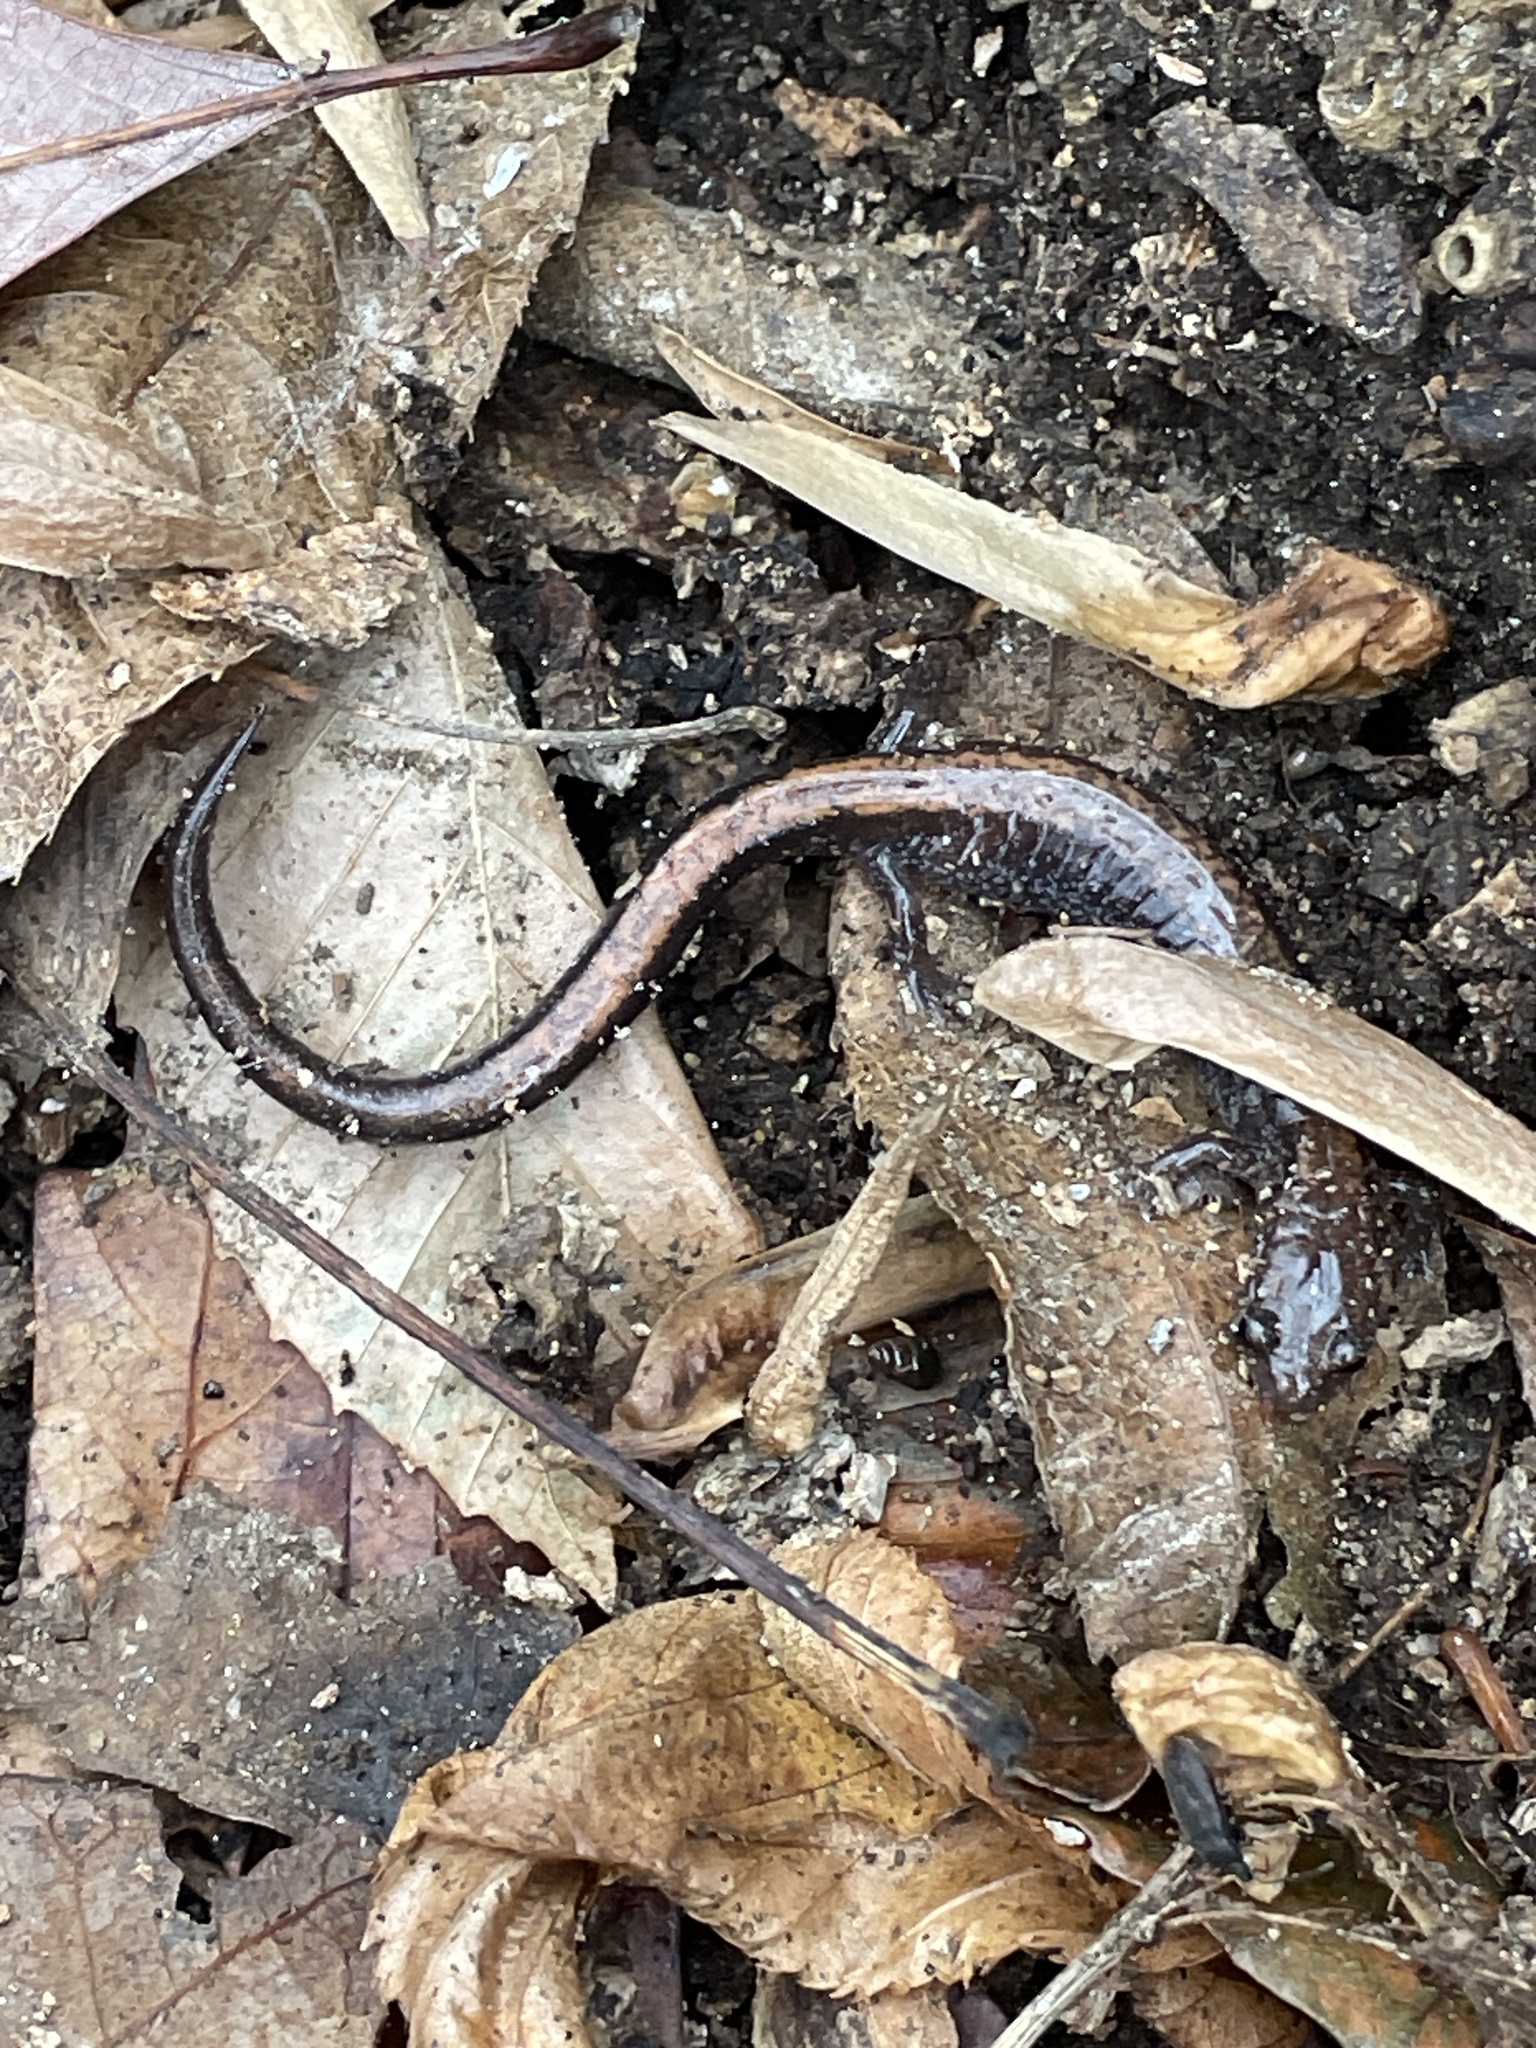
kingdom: Animalia
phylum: Chordata
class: Amphibia
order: Caudata
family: Plethodontidae
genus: Plethodon
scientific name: Plethodon cinereus
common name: Redback salamander
